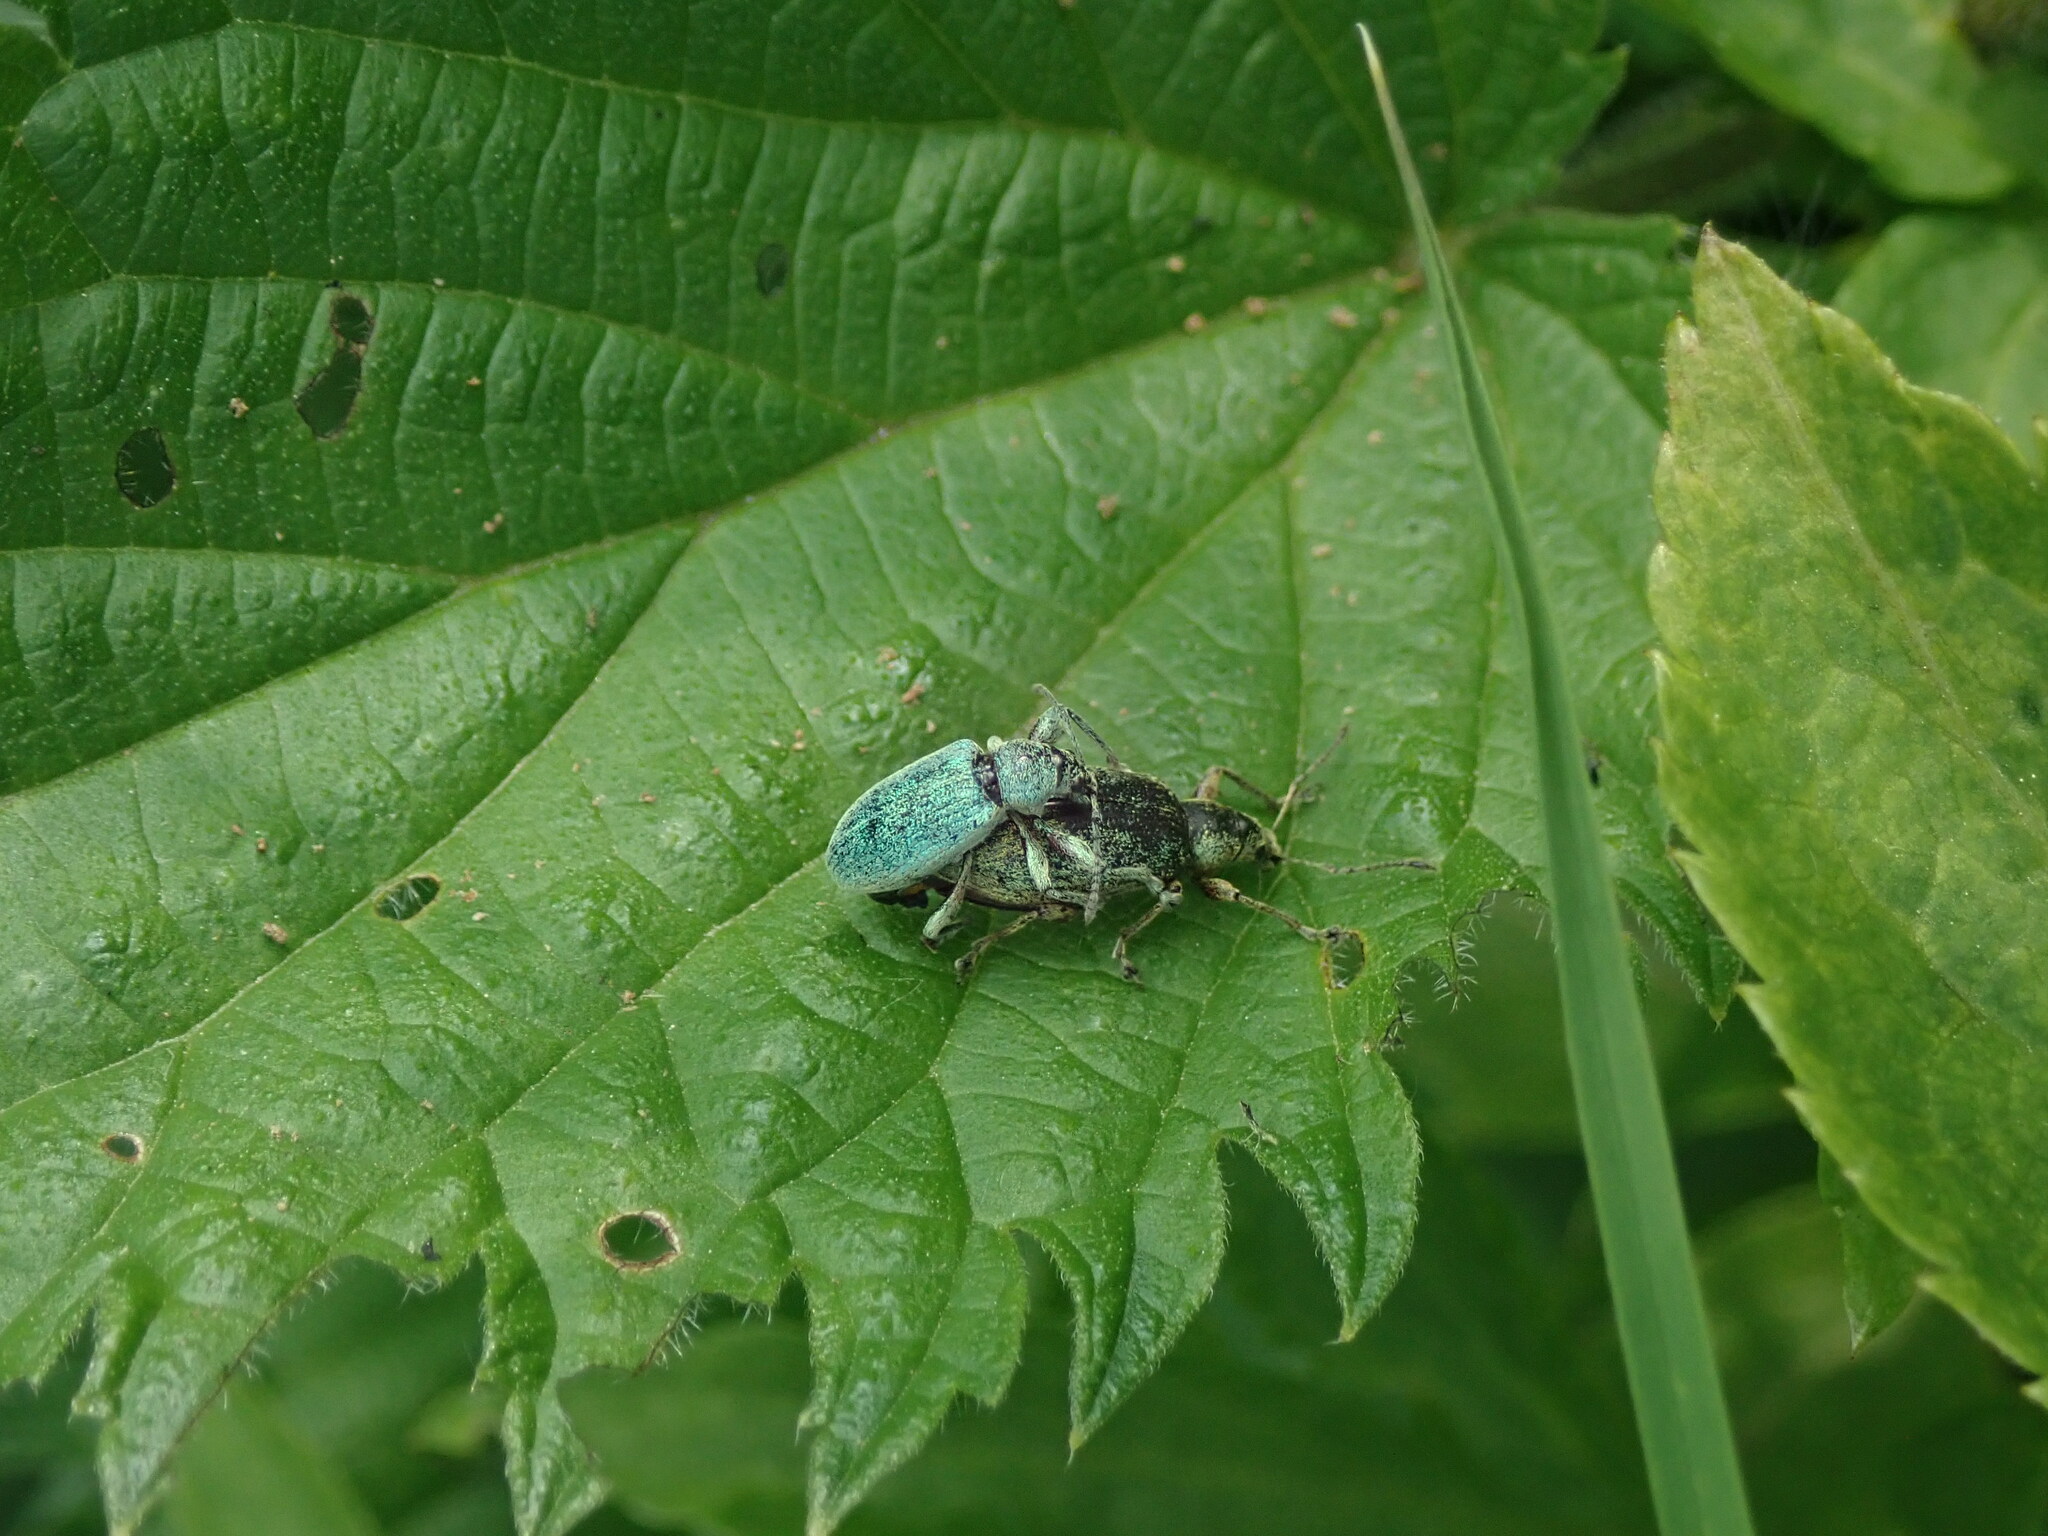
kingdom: Animalia
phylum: Arthropoda
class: Insecta
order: Coleoptera
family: Curculionidae
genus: Phyllobius
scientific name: Phyllobius pomaceus
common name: Green nettle weevil
